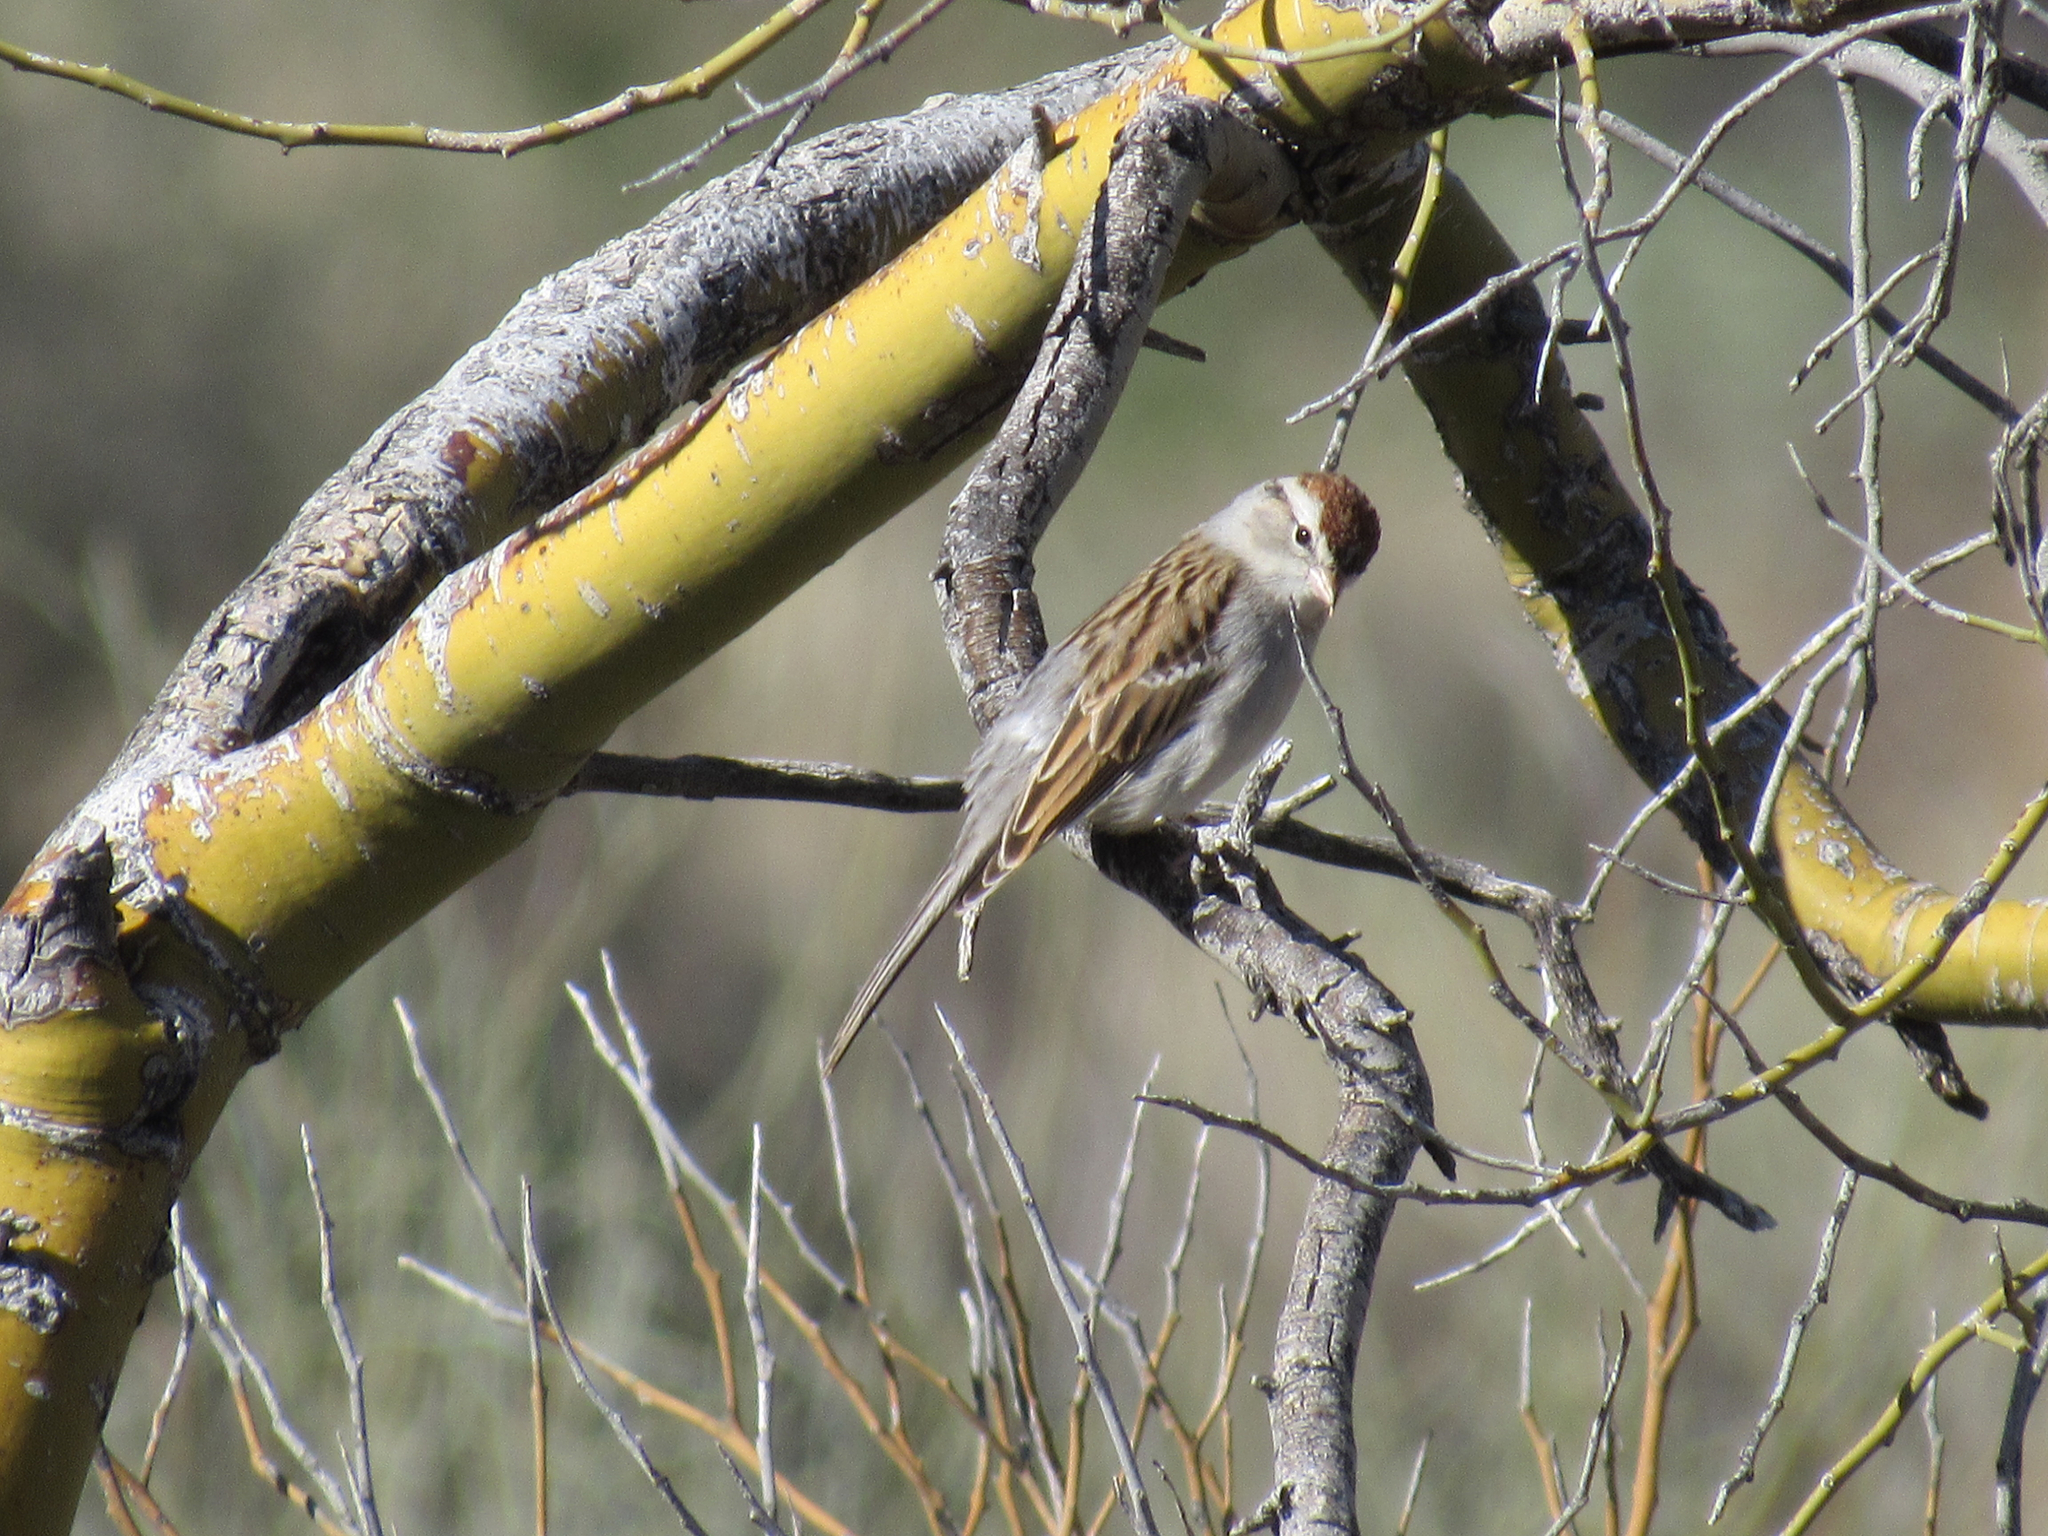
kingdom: Animalia
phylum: Chordata
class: Aves
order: Passeriformes
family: Passerellidae
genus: Spizella
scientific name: Spizella passerina
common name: Chipping sparrow
